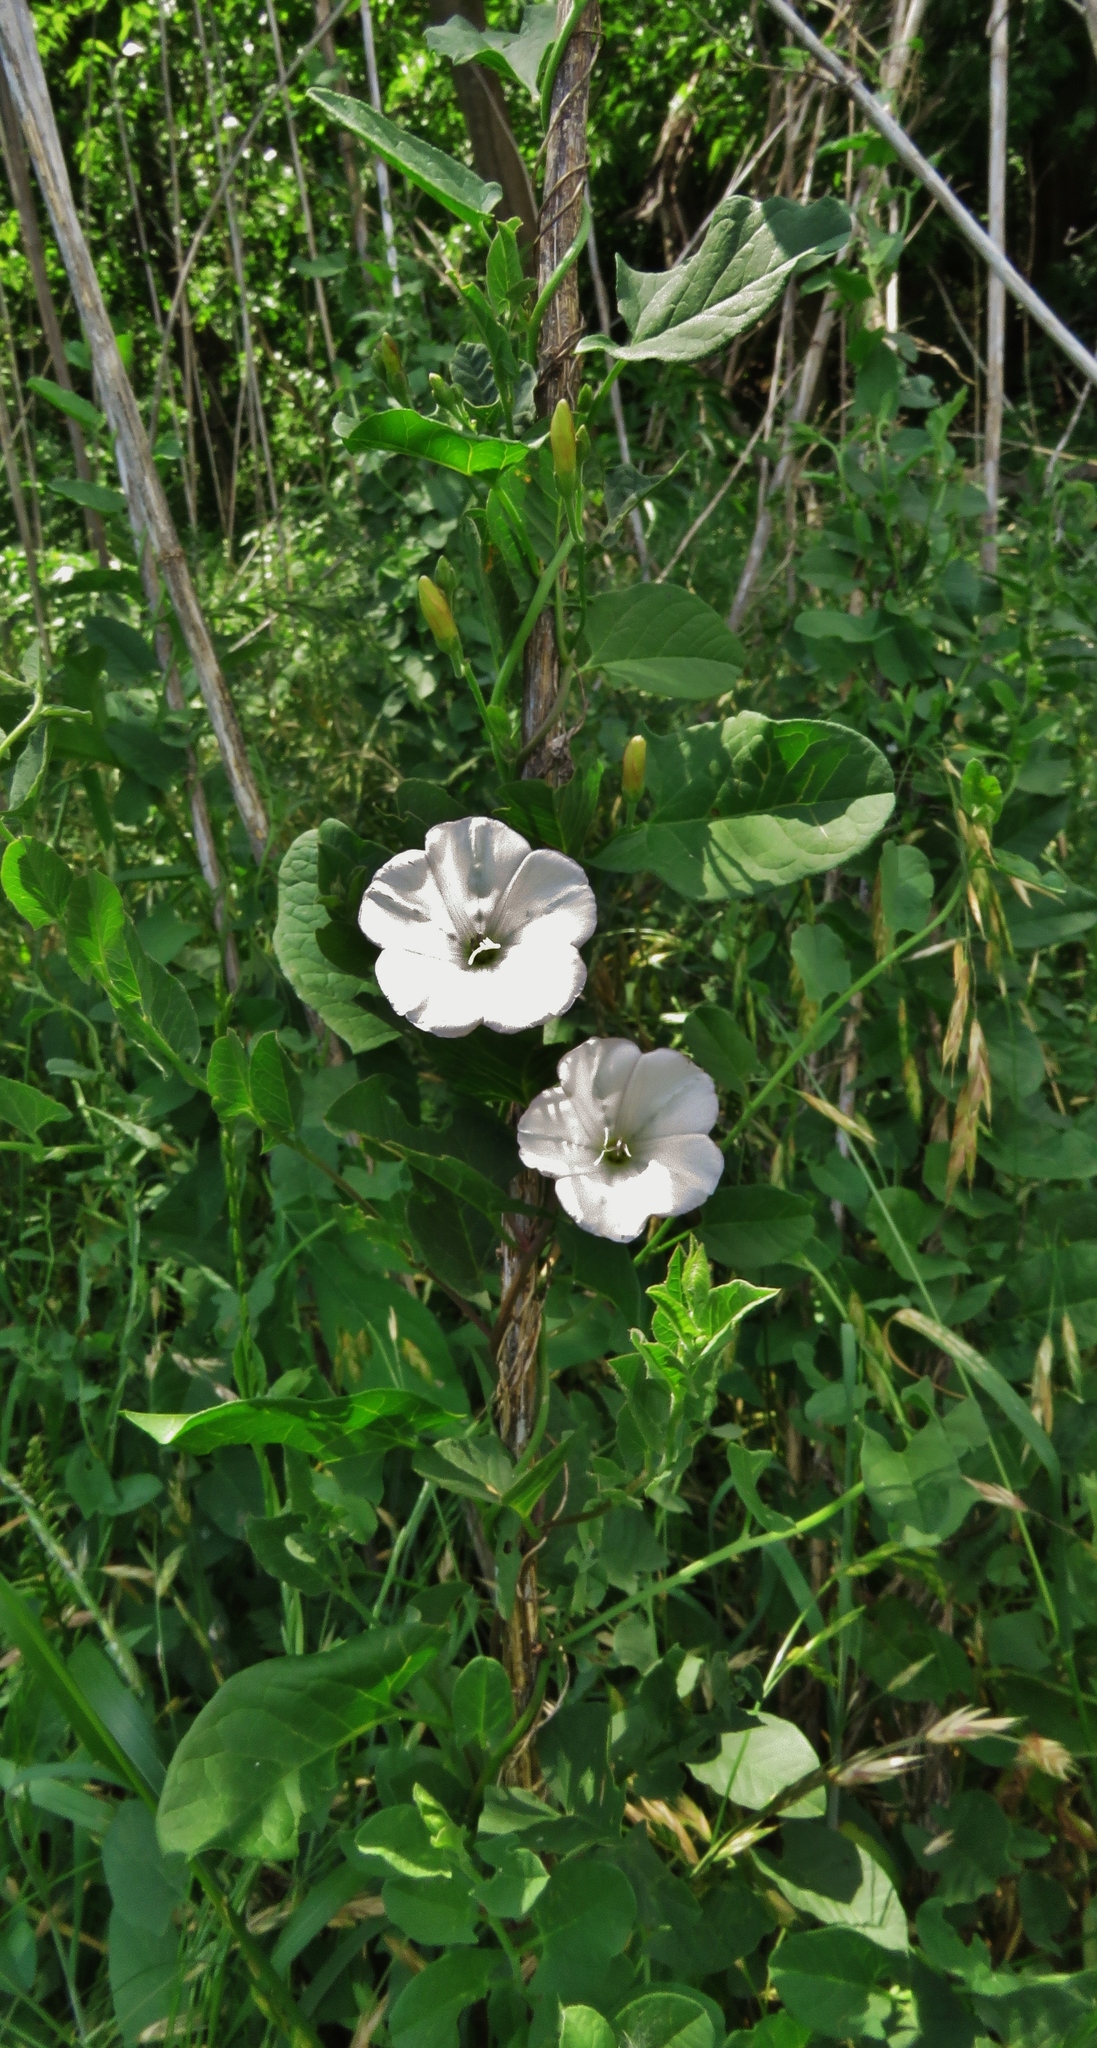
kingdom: Plantae
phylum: Tracheophyta
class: Magnoliopsida
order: Solanales
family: Convolvulaceae
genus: Convolvulus
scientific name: Convolvulus arvensis
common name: Field bindweed
